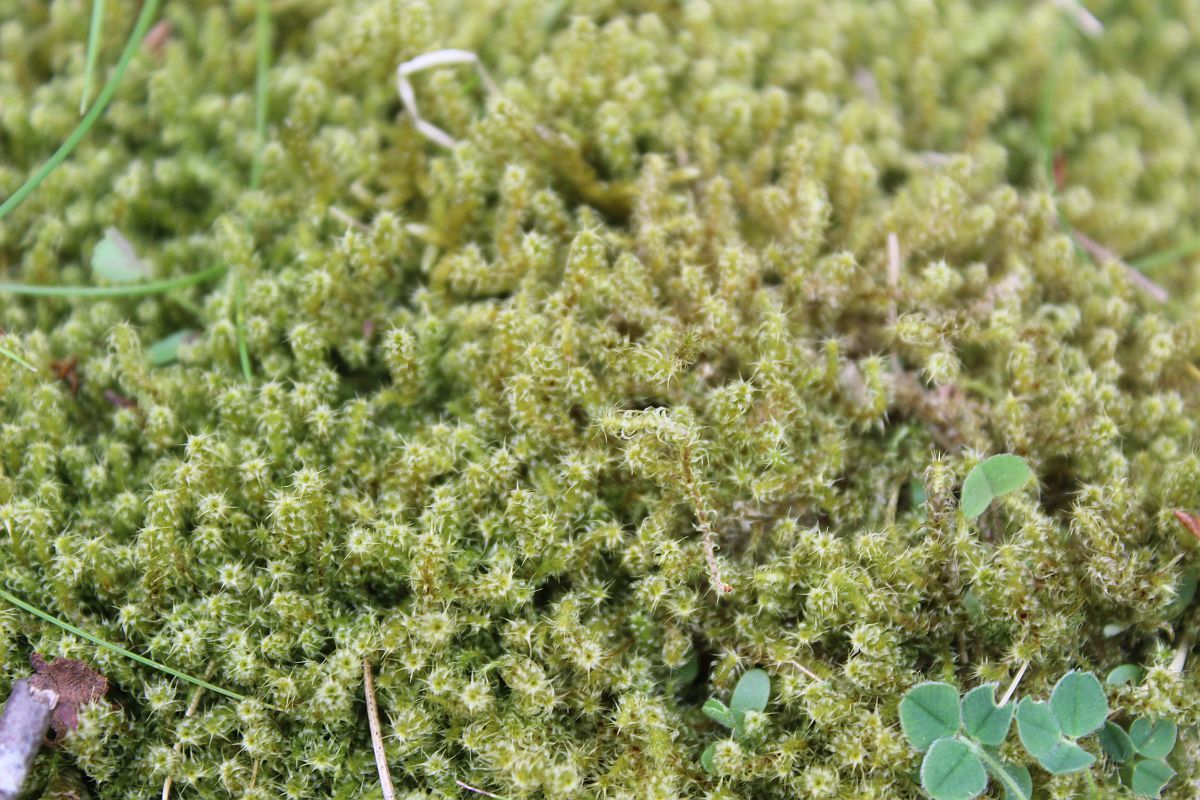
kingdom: Plantae
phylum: Bryophyta
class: Bryopsida
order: Hypnales
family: Hylocomiaceae
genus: Rhytidiadelphus
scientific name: Rhytidiadelphus squarrosus
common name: Springy turf-moss
